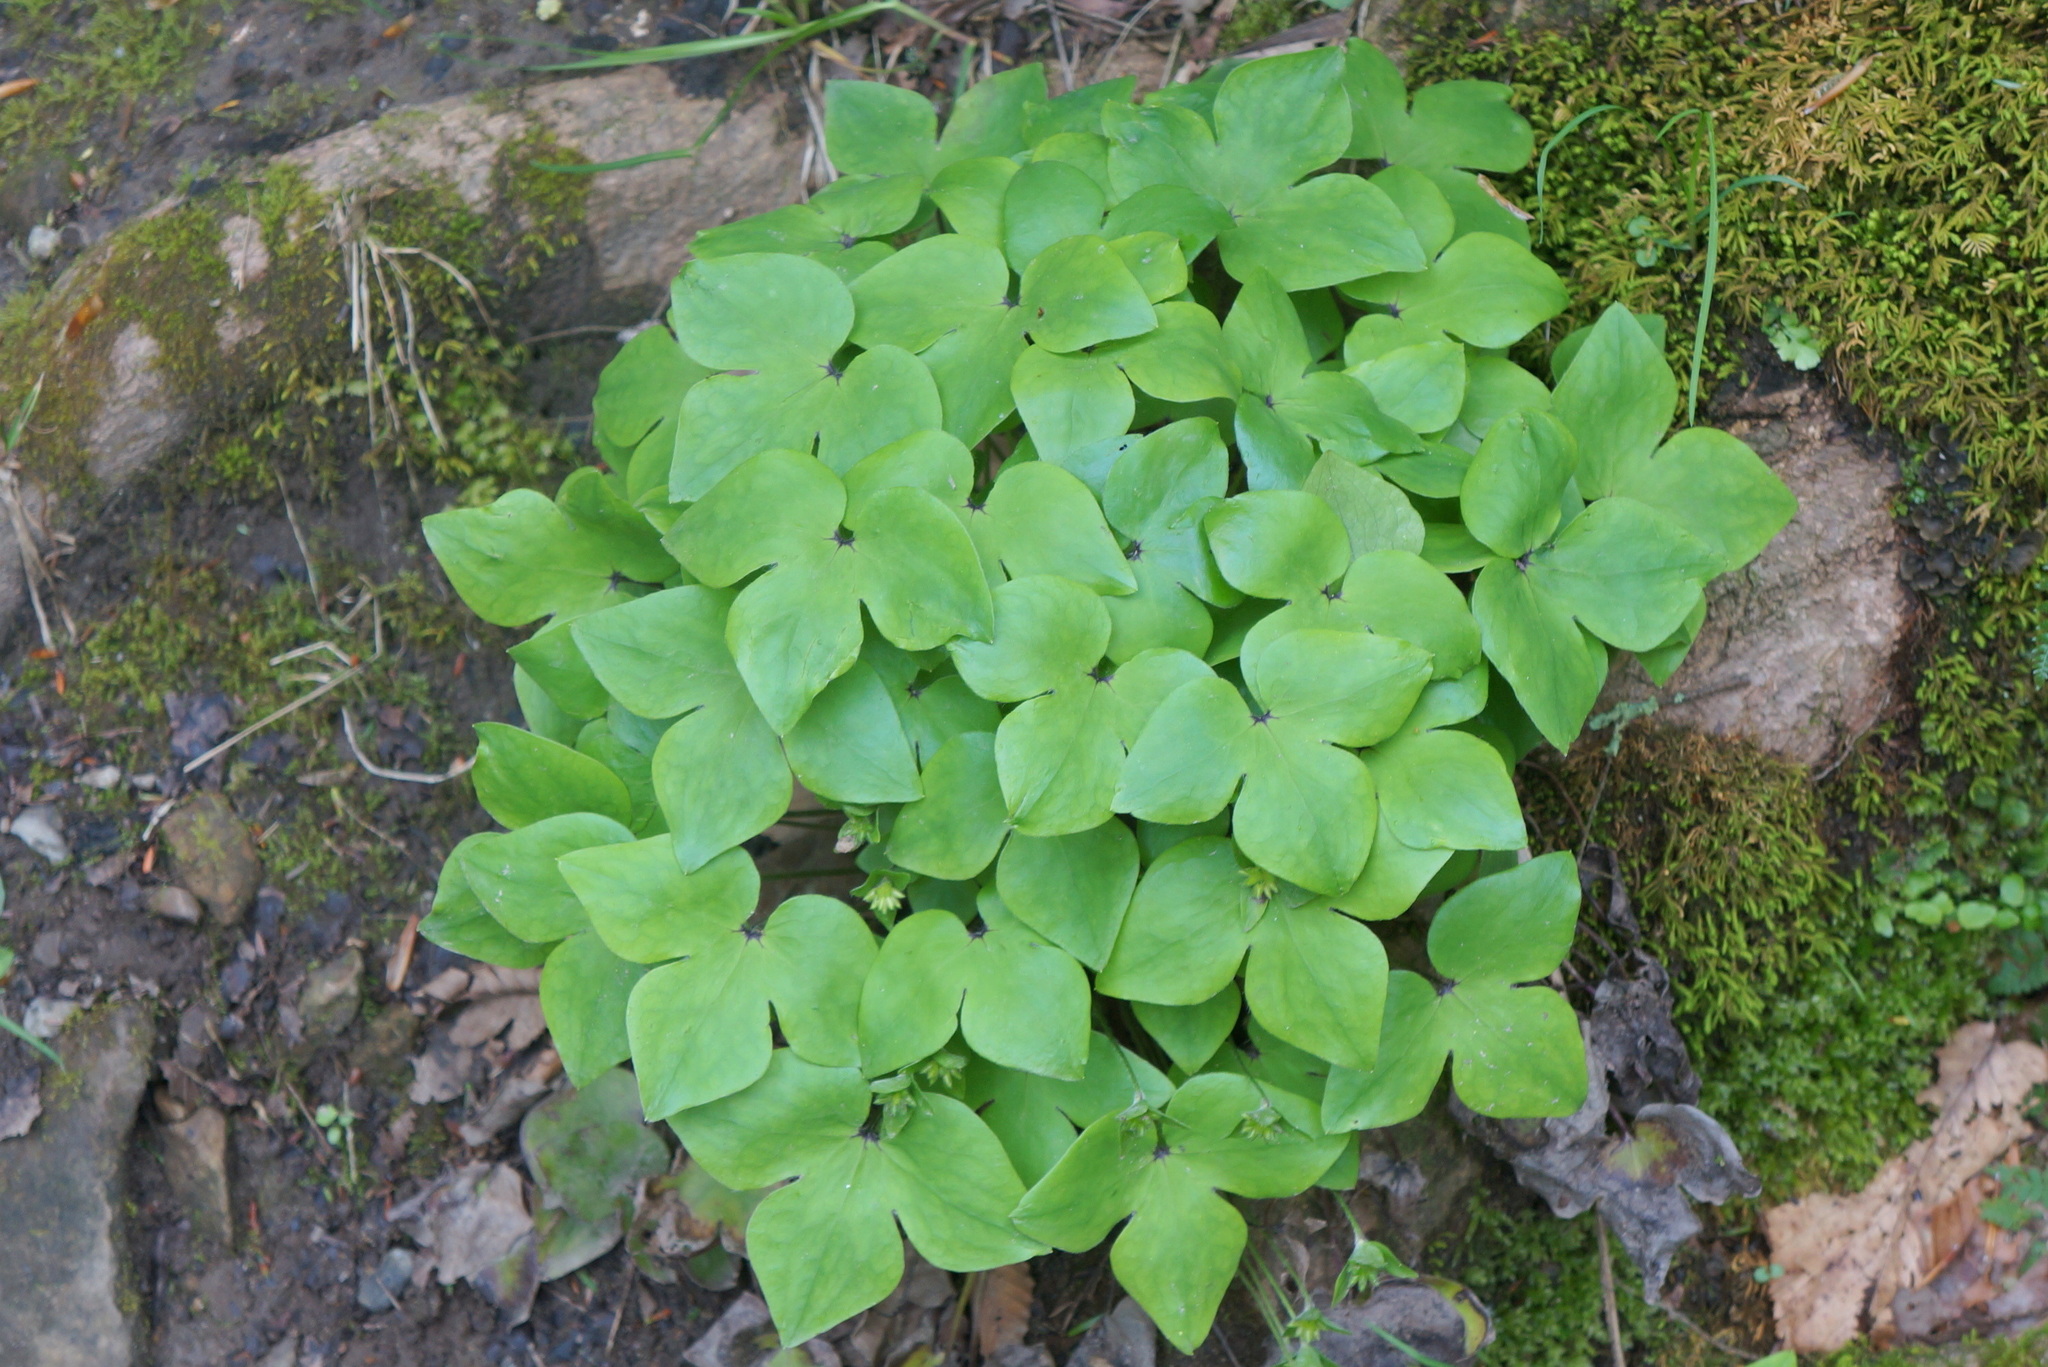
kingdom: Plantae
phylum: Tracheophyta
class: Magnoliopsida
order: Ranunculales
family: Ranunculaceae
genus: Hepatica
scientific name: Hepatica acutiloba
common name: Sharp-lobed hepatica
